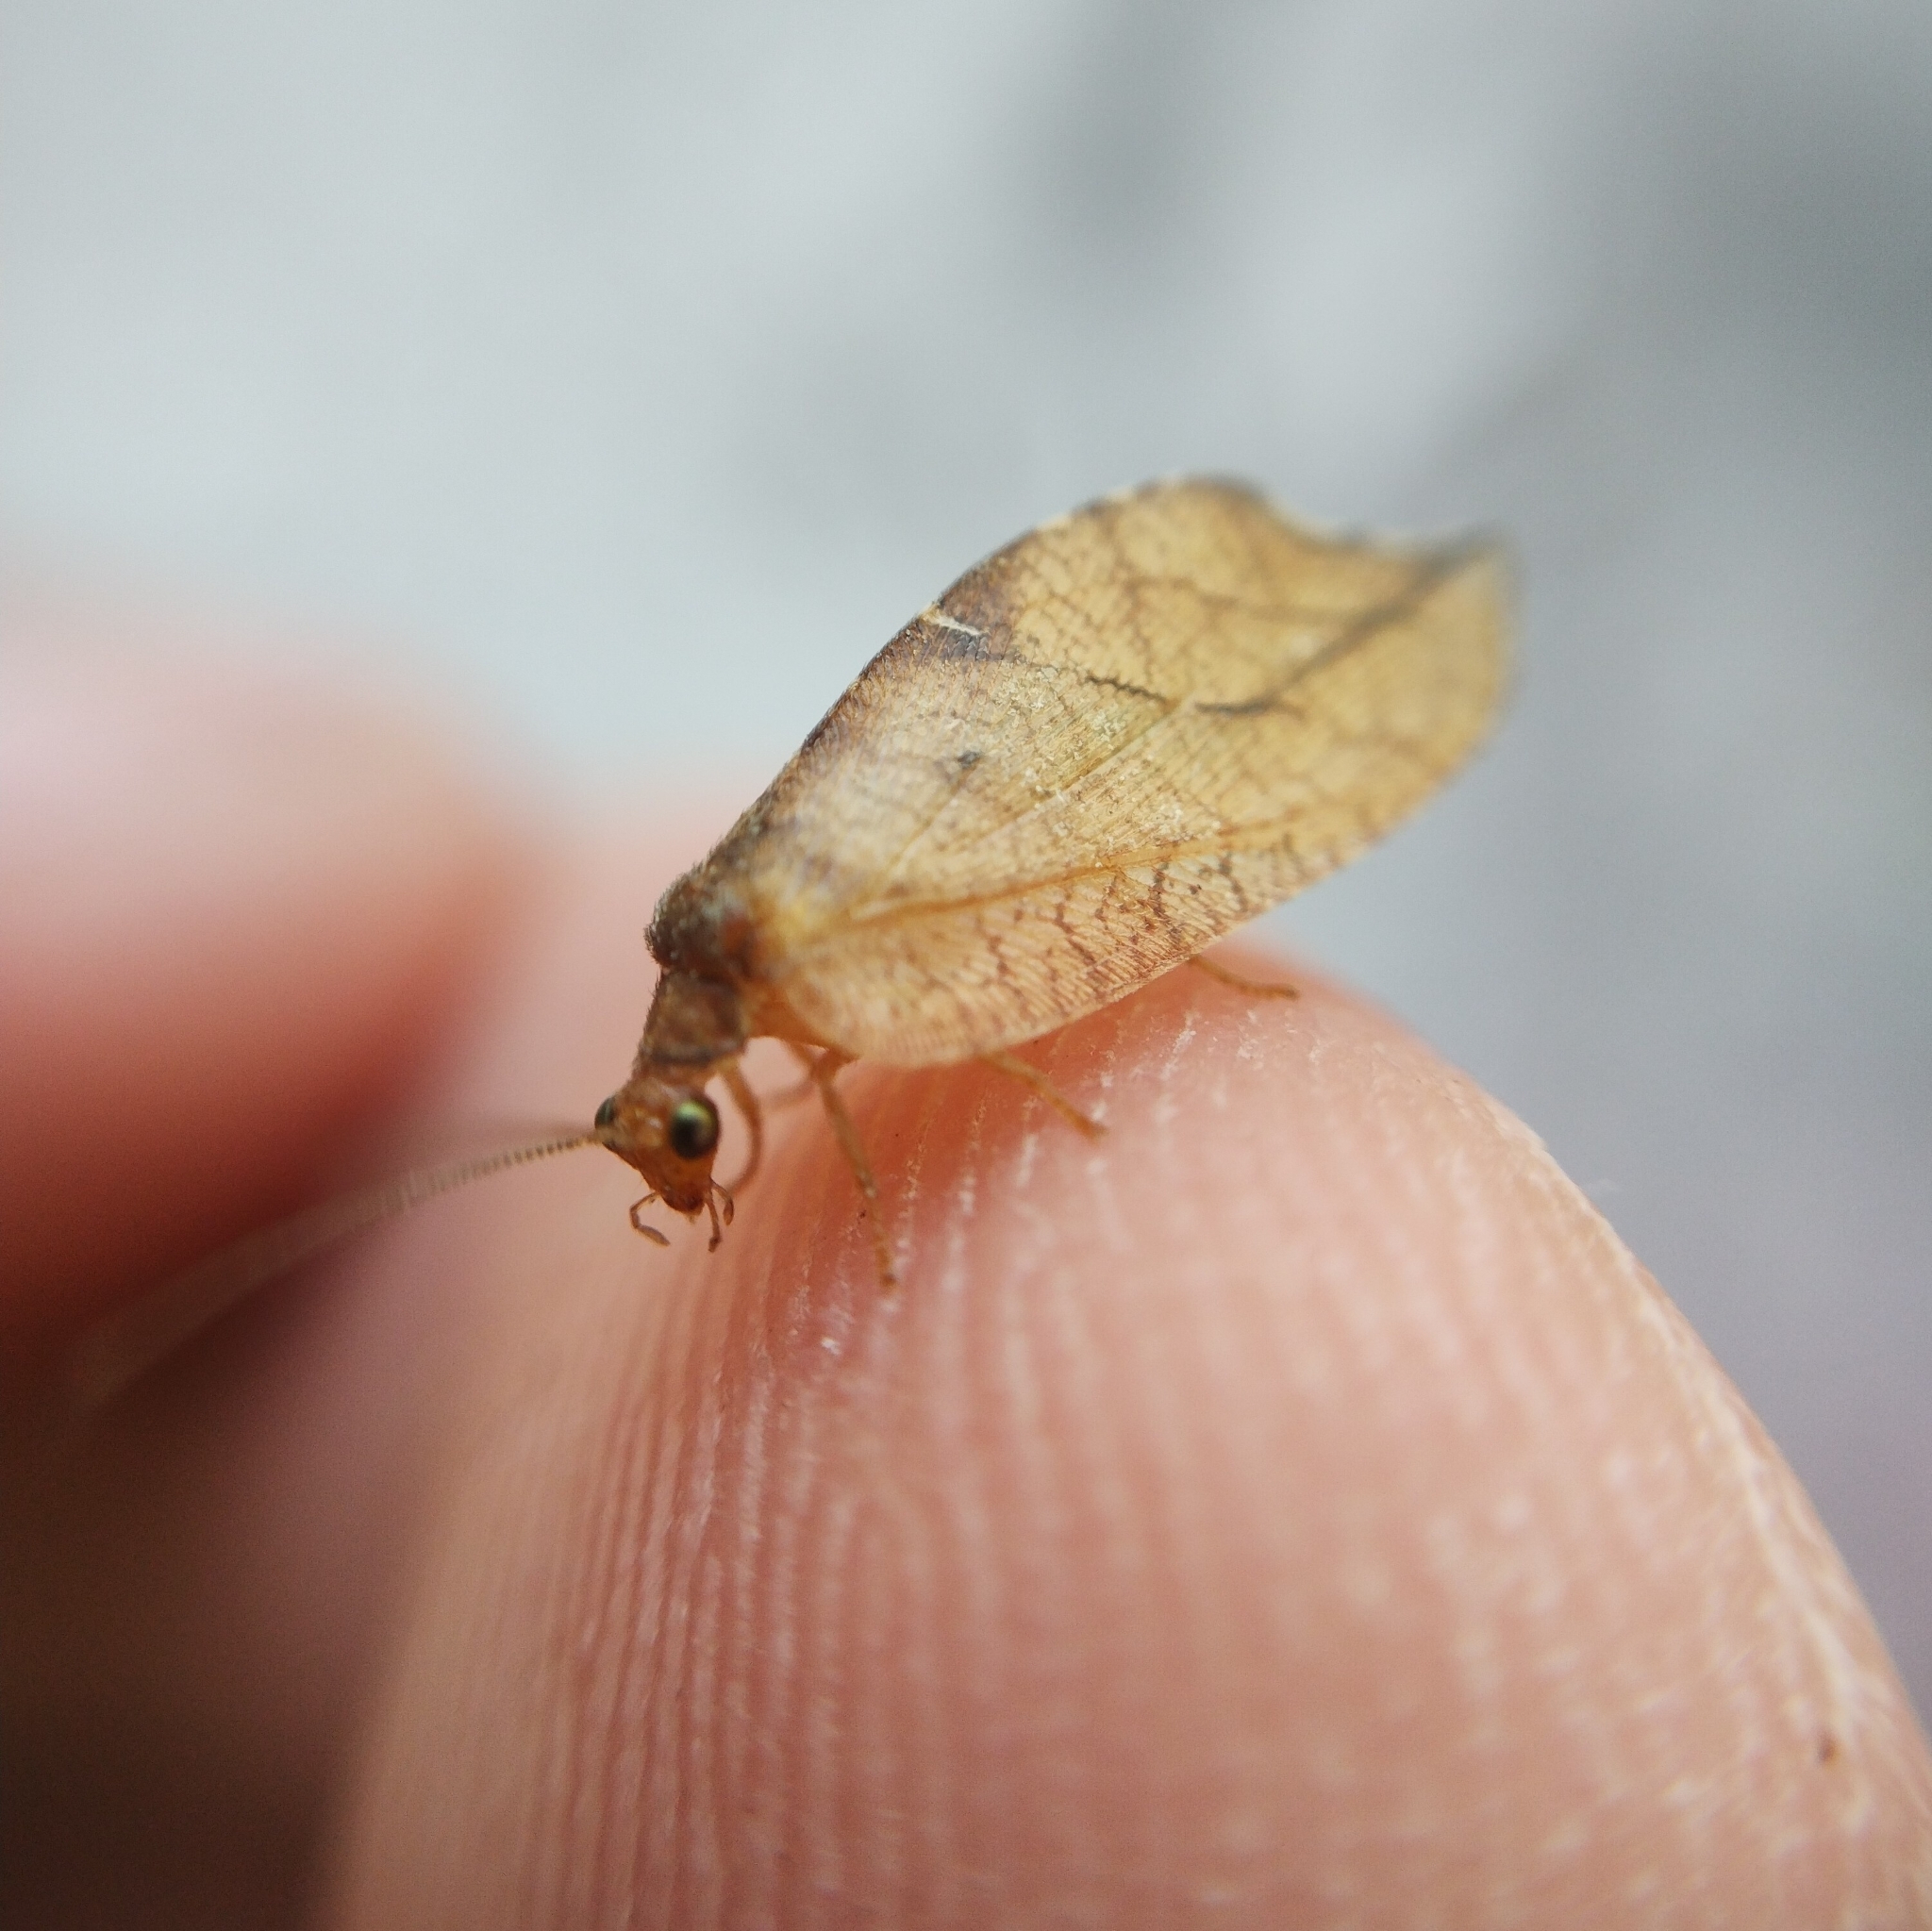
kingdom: Animalia
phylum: Arthropoda
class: Insecta
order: Neuroptera
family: Hemerobiidae
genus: Drepanepteryx
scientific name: Drepanepteryx phalaenoides
